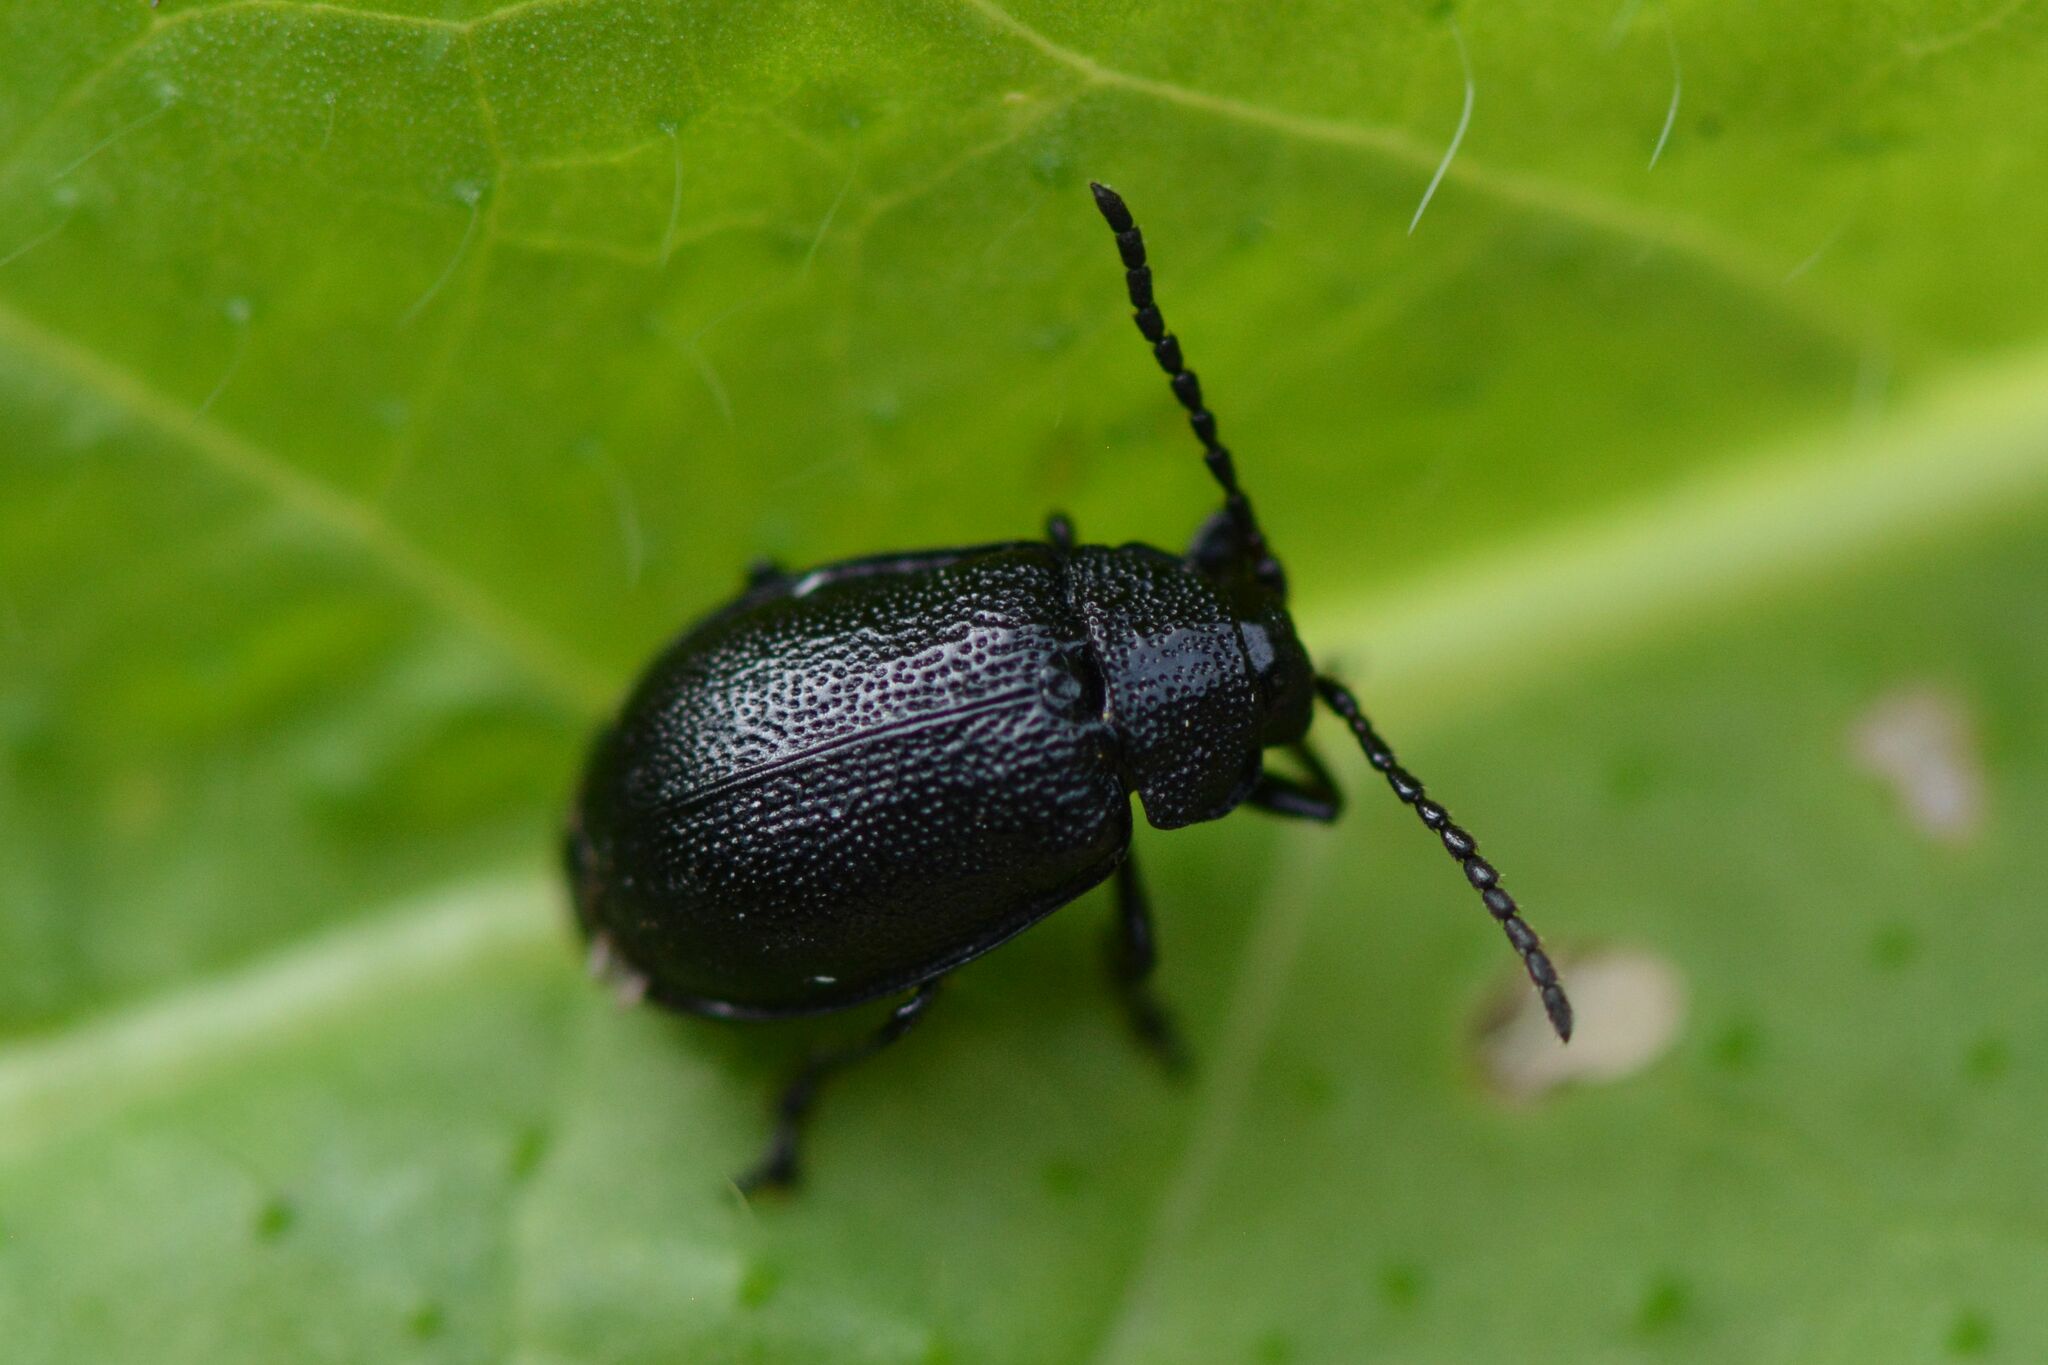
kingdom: Animalia
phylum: Arthropoda
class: Insecta
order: Coleoptera
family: Chrysomelidae
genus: Galeruca
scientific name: Galeruca tanaceti
